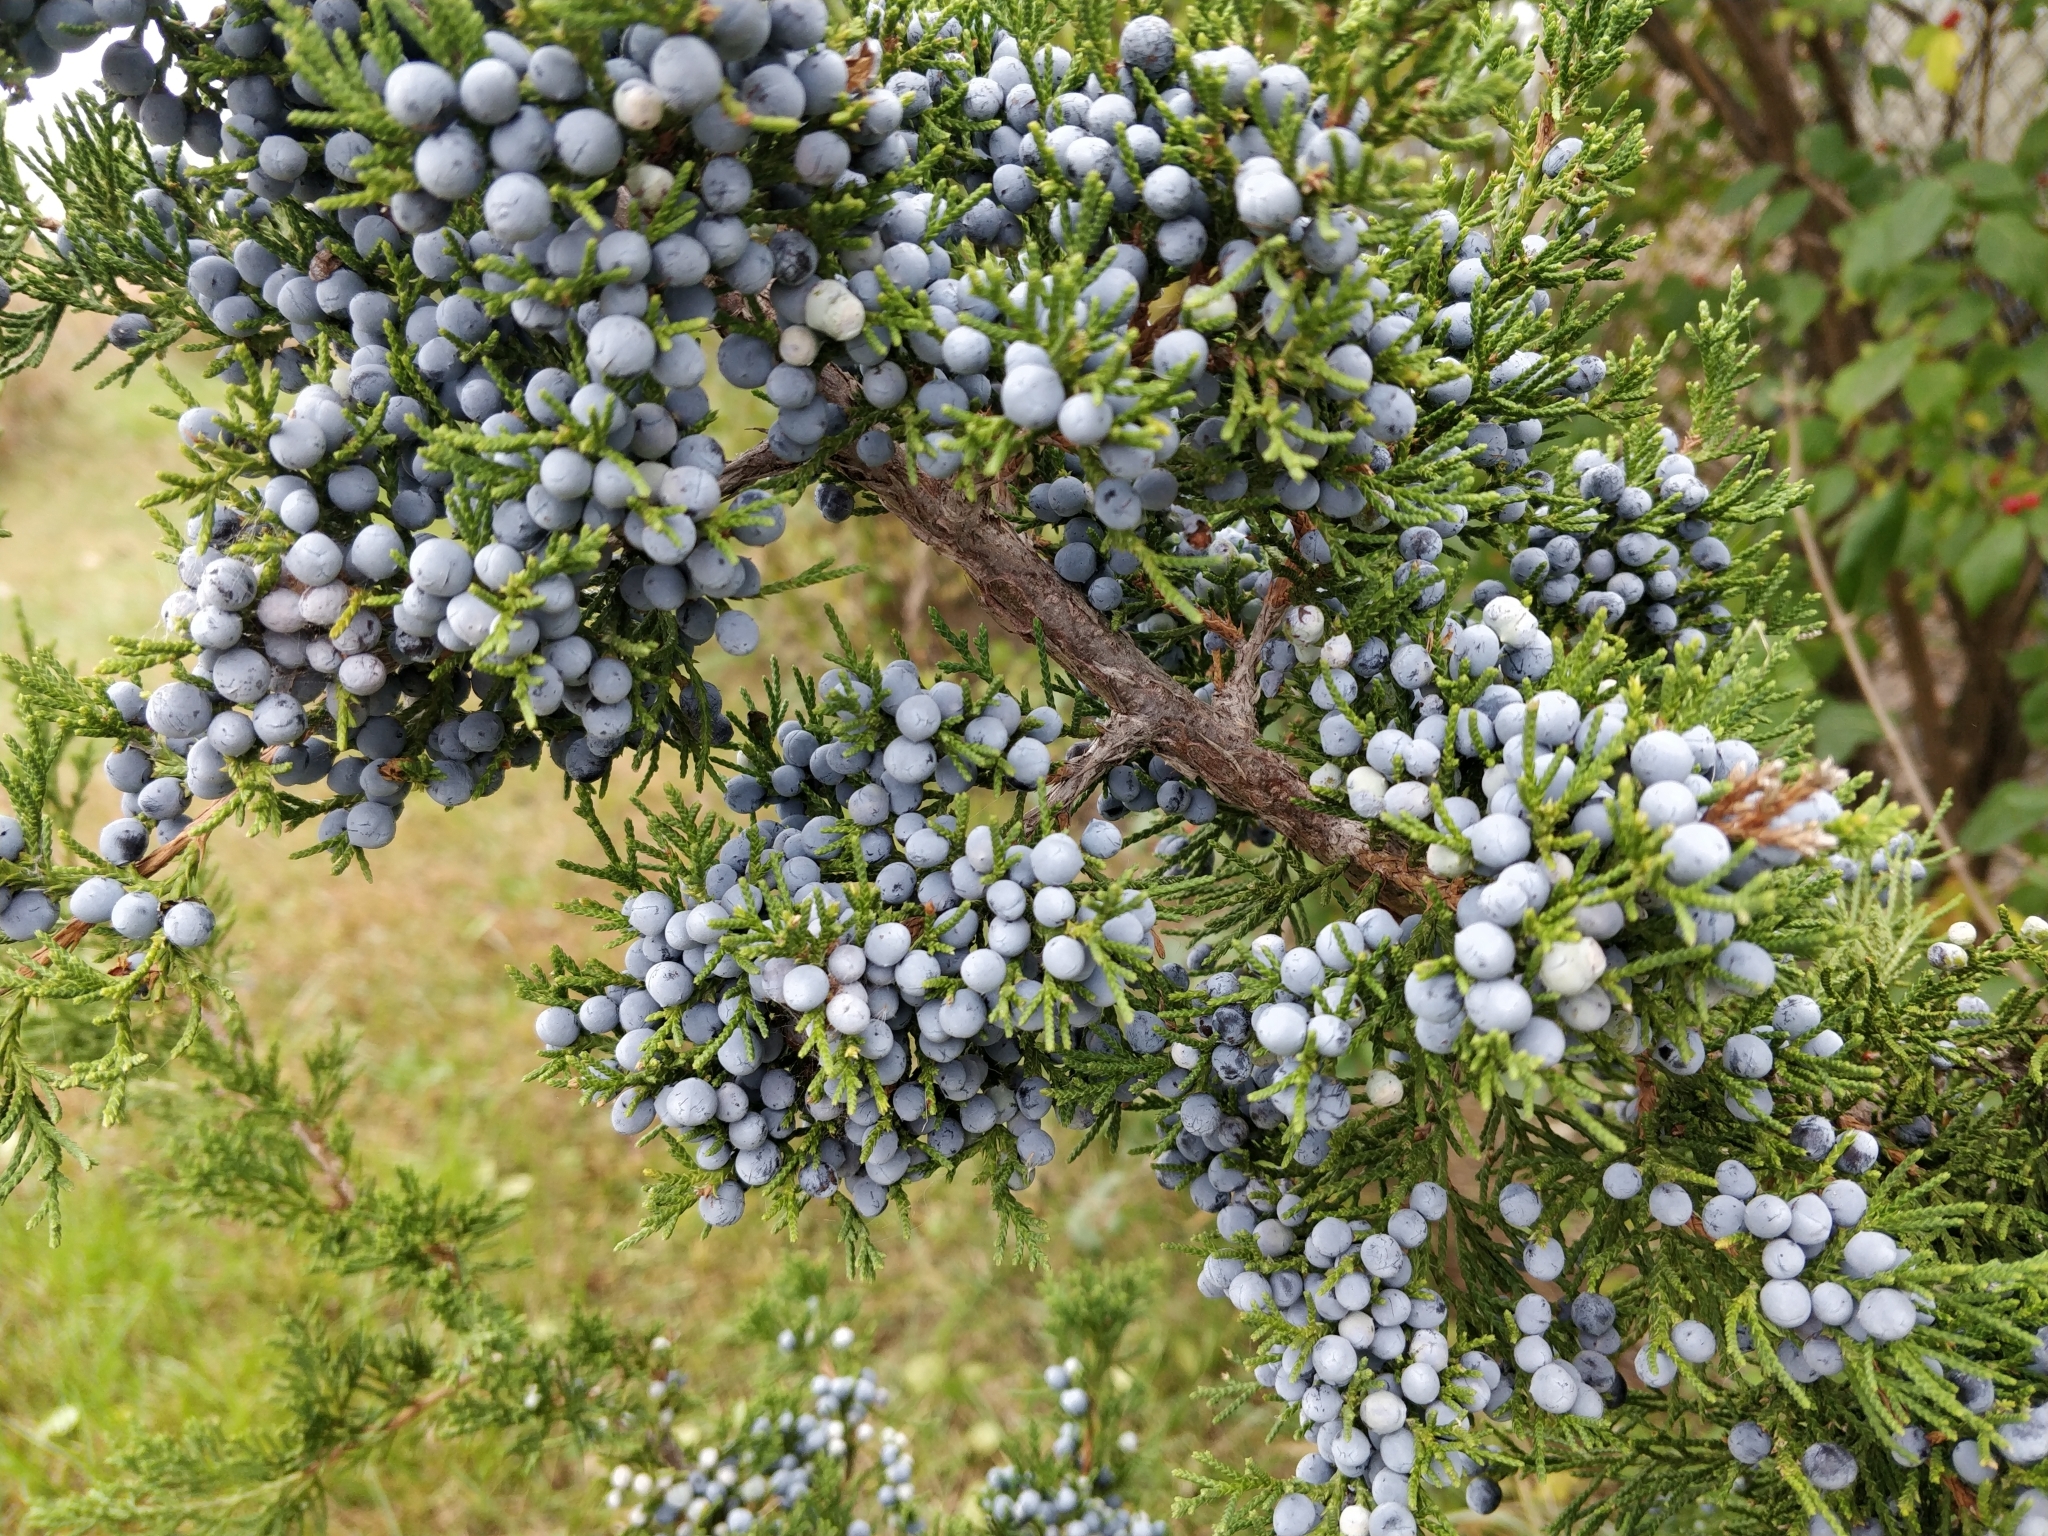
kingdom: Plantae
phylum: Tracheophyta
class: Pinopsida
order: Pinales
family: Cupressaceae
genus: Juniperus
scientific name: Juniperus virginiana
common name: Red juniper
